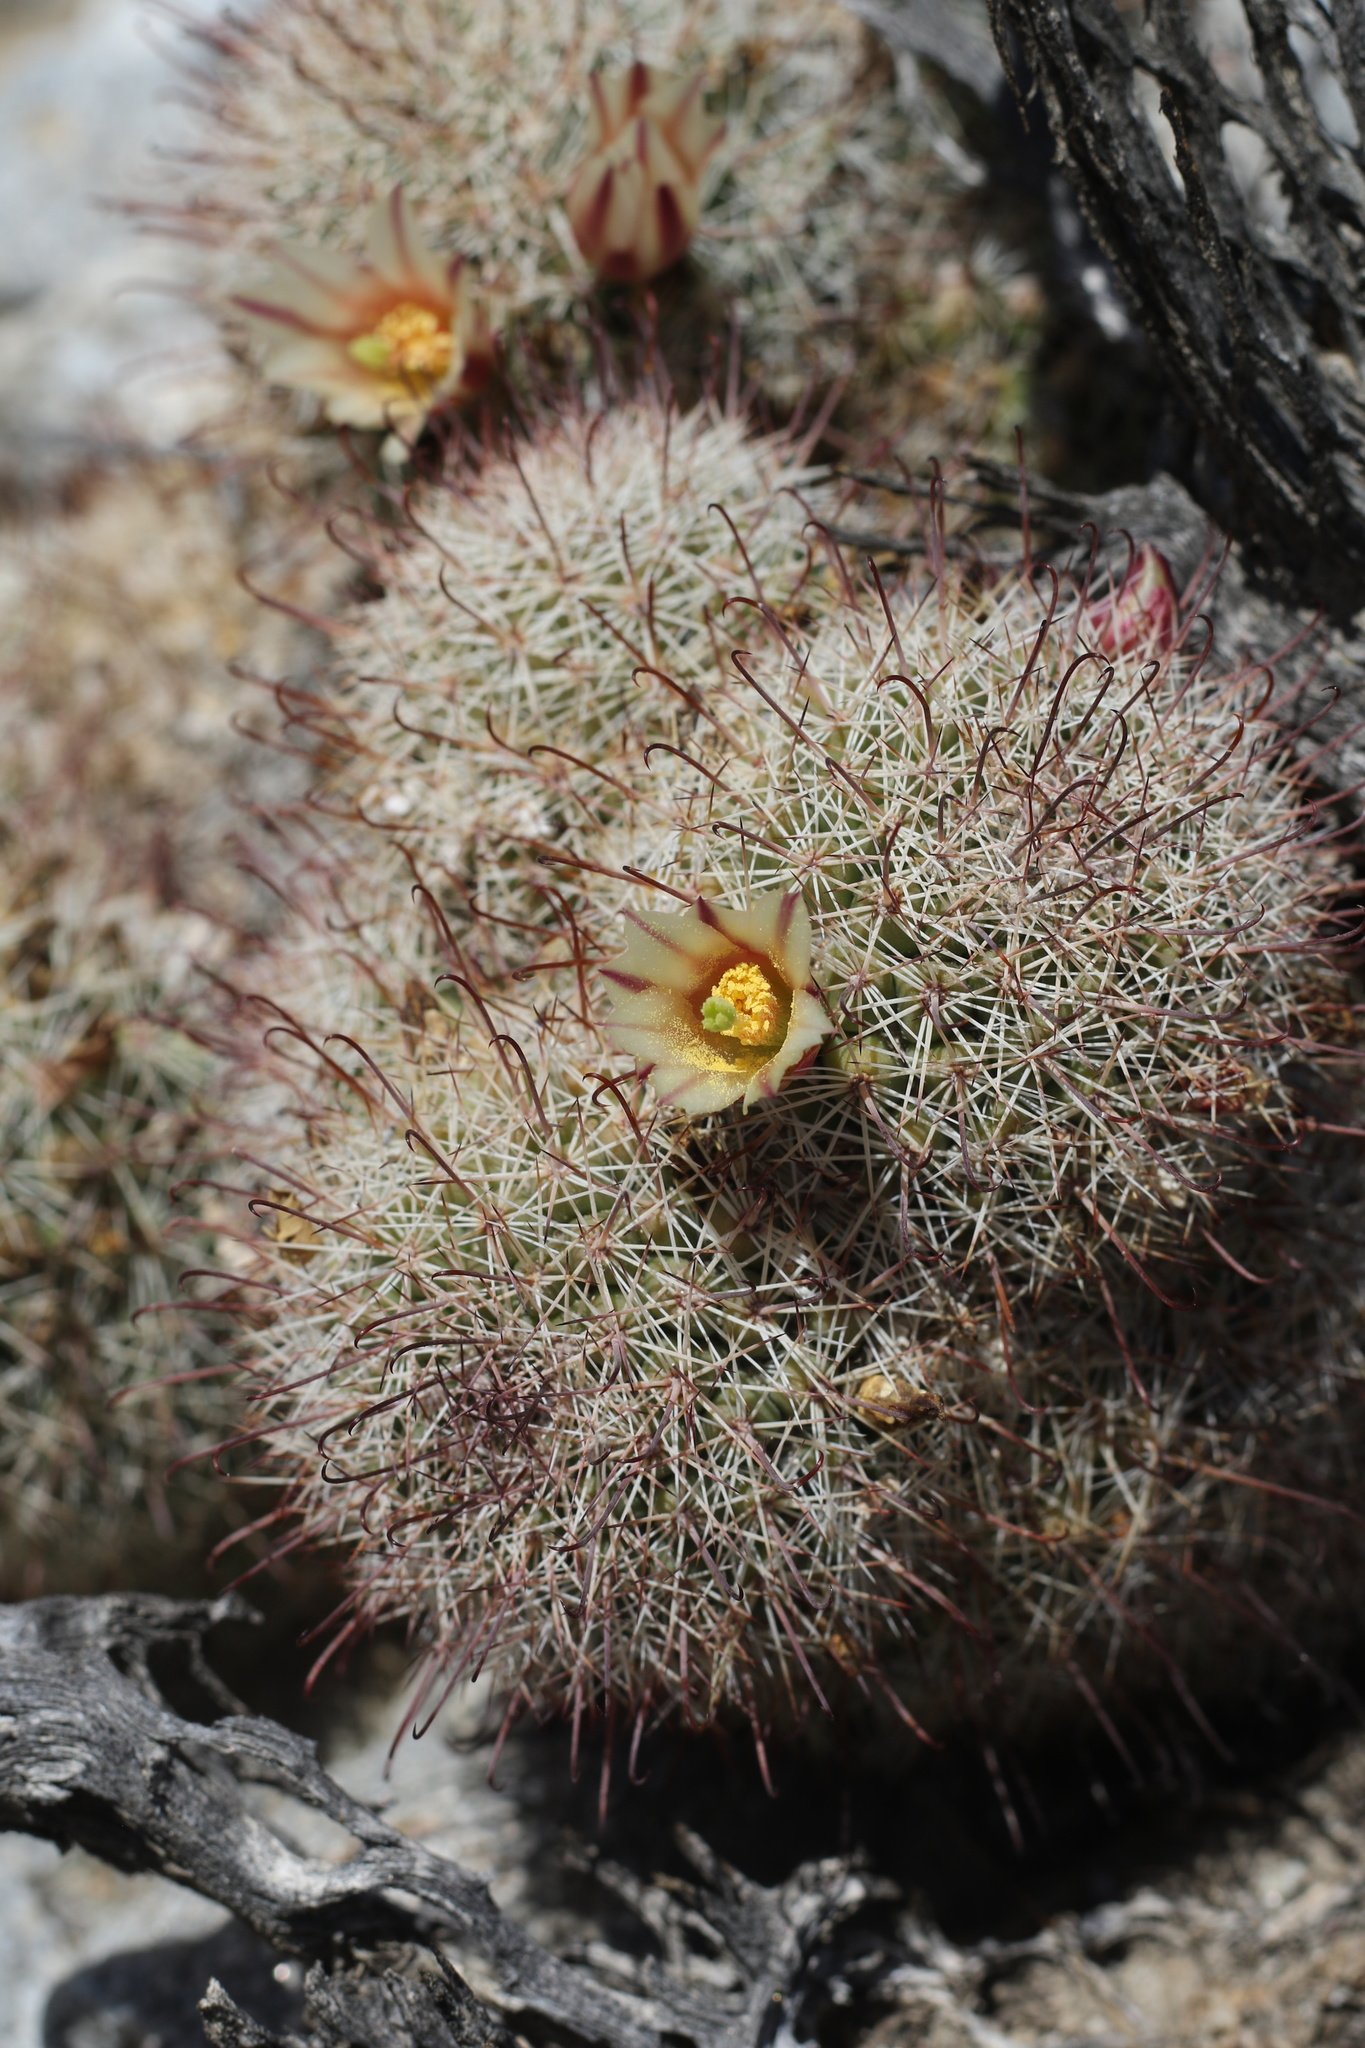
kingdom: Plantae
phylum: Tracheophyta
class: Magnoliopsida
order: Caryophyllales
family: Cactaceae
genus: Cochemiea
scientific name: Cochemiea dioica
